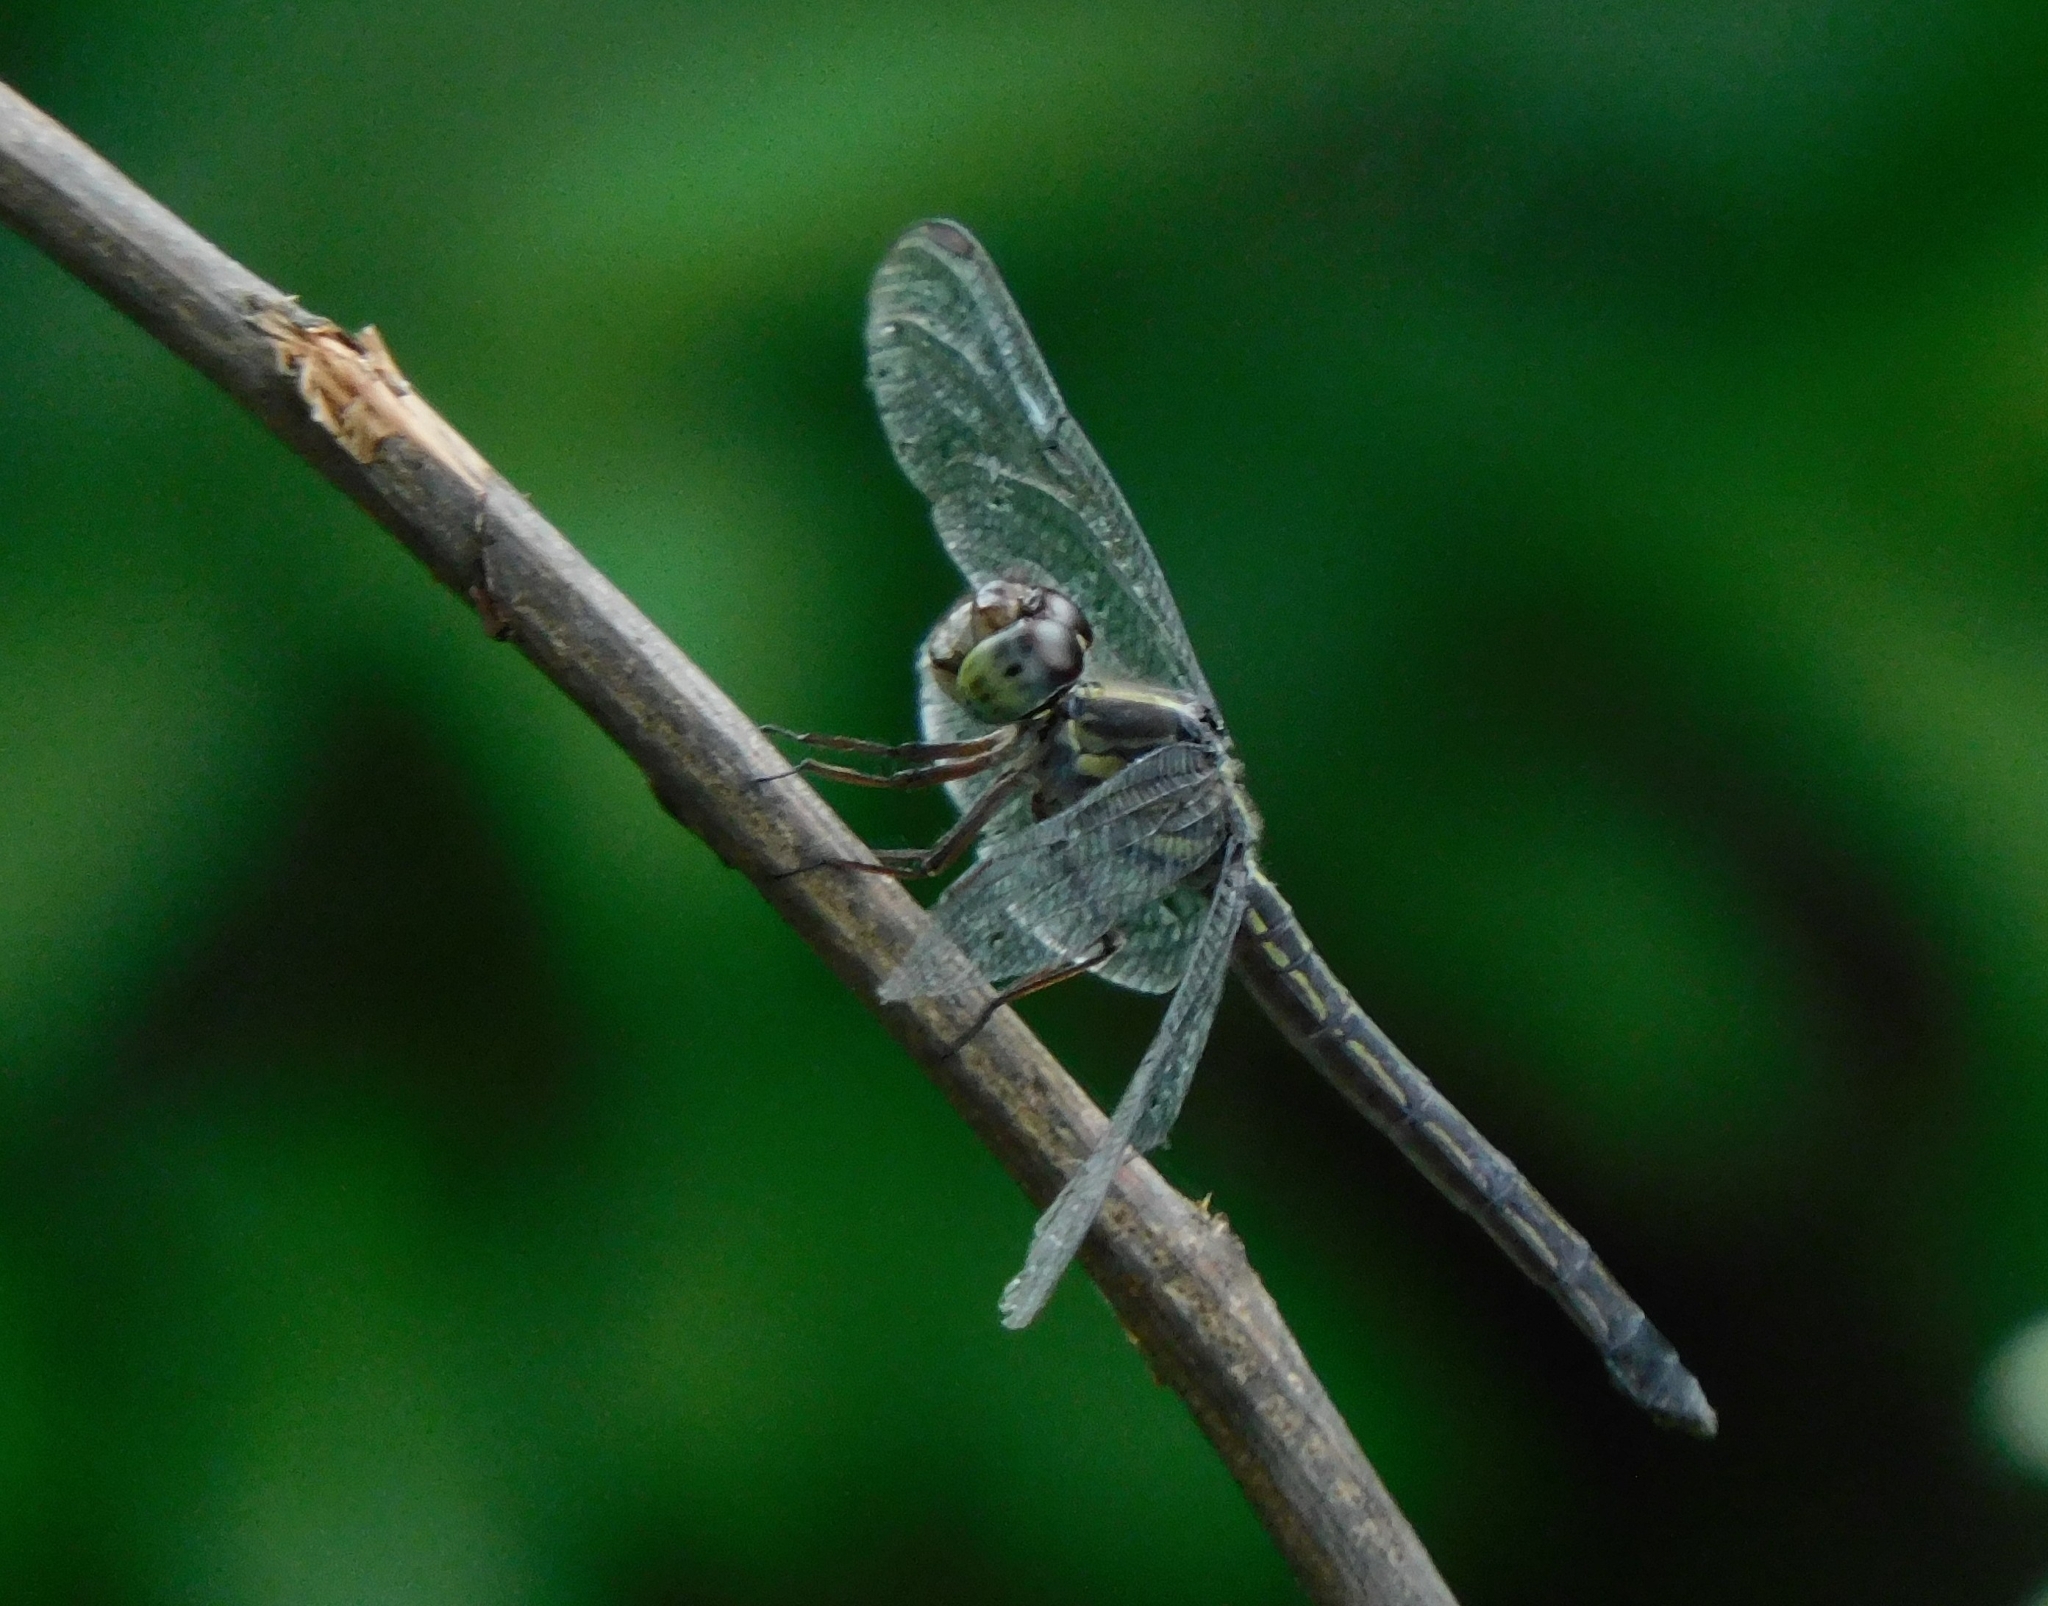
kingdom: Animalia
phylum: Arthropoda
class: Insecta
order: Odonata
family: Libellulidae
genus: Cratilla
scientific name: Cratilla lineata
